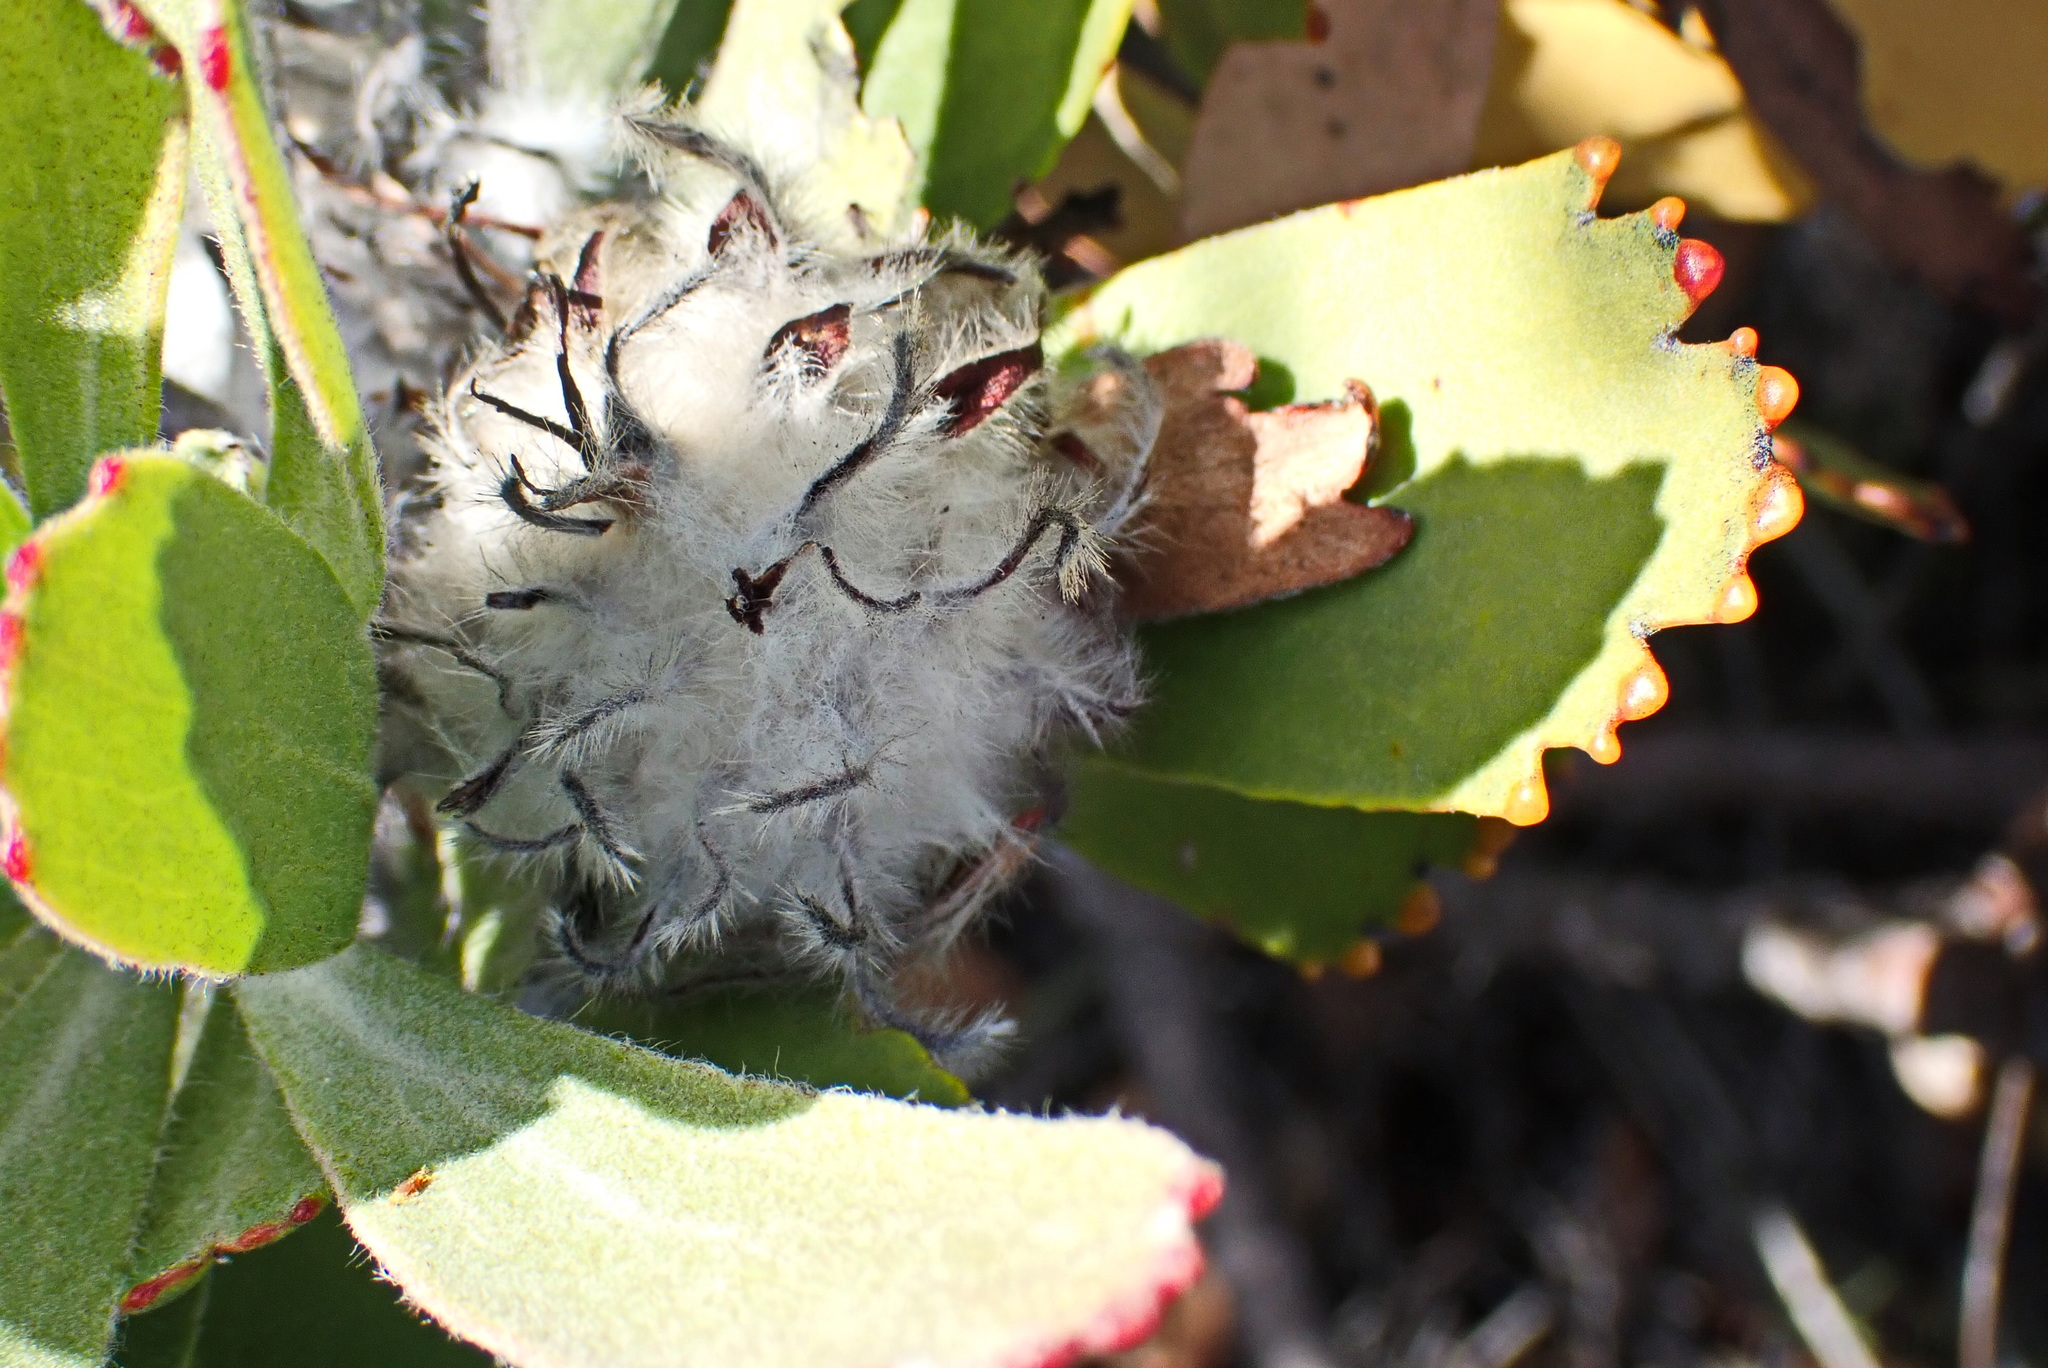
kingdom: Plantae
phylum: Tracheophyta
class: Magnoliopsida
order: Proteales
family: Proteaceae
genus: Leucospermum
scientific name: Leucospermum pluridens
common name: Robinson pincushion
